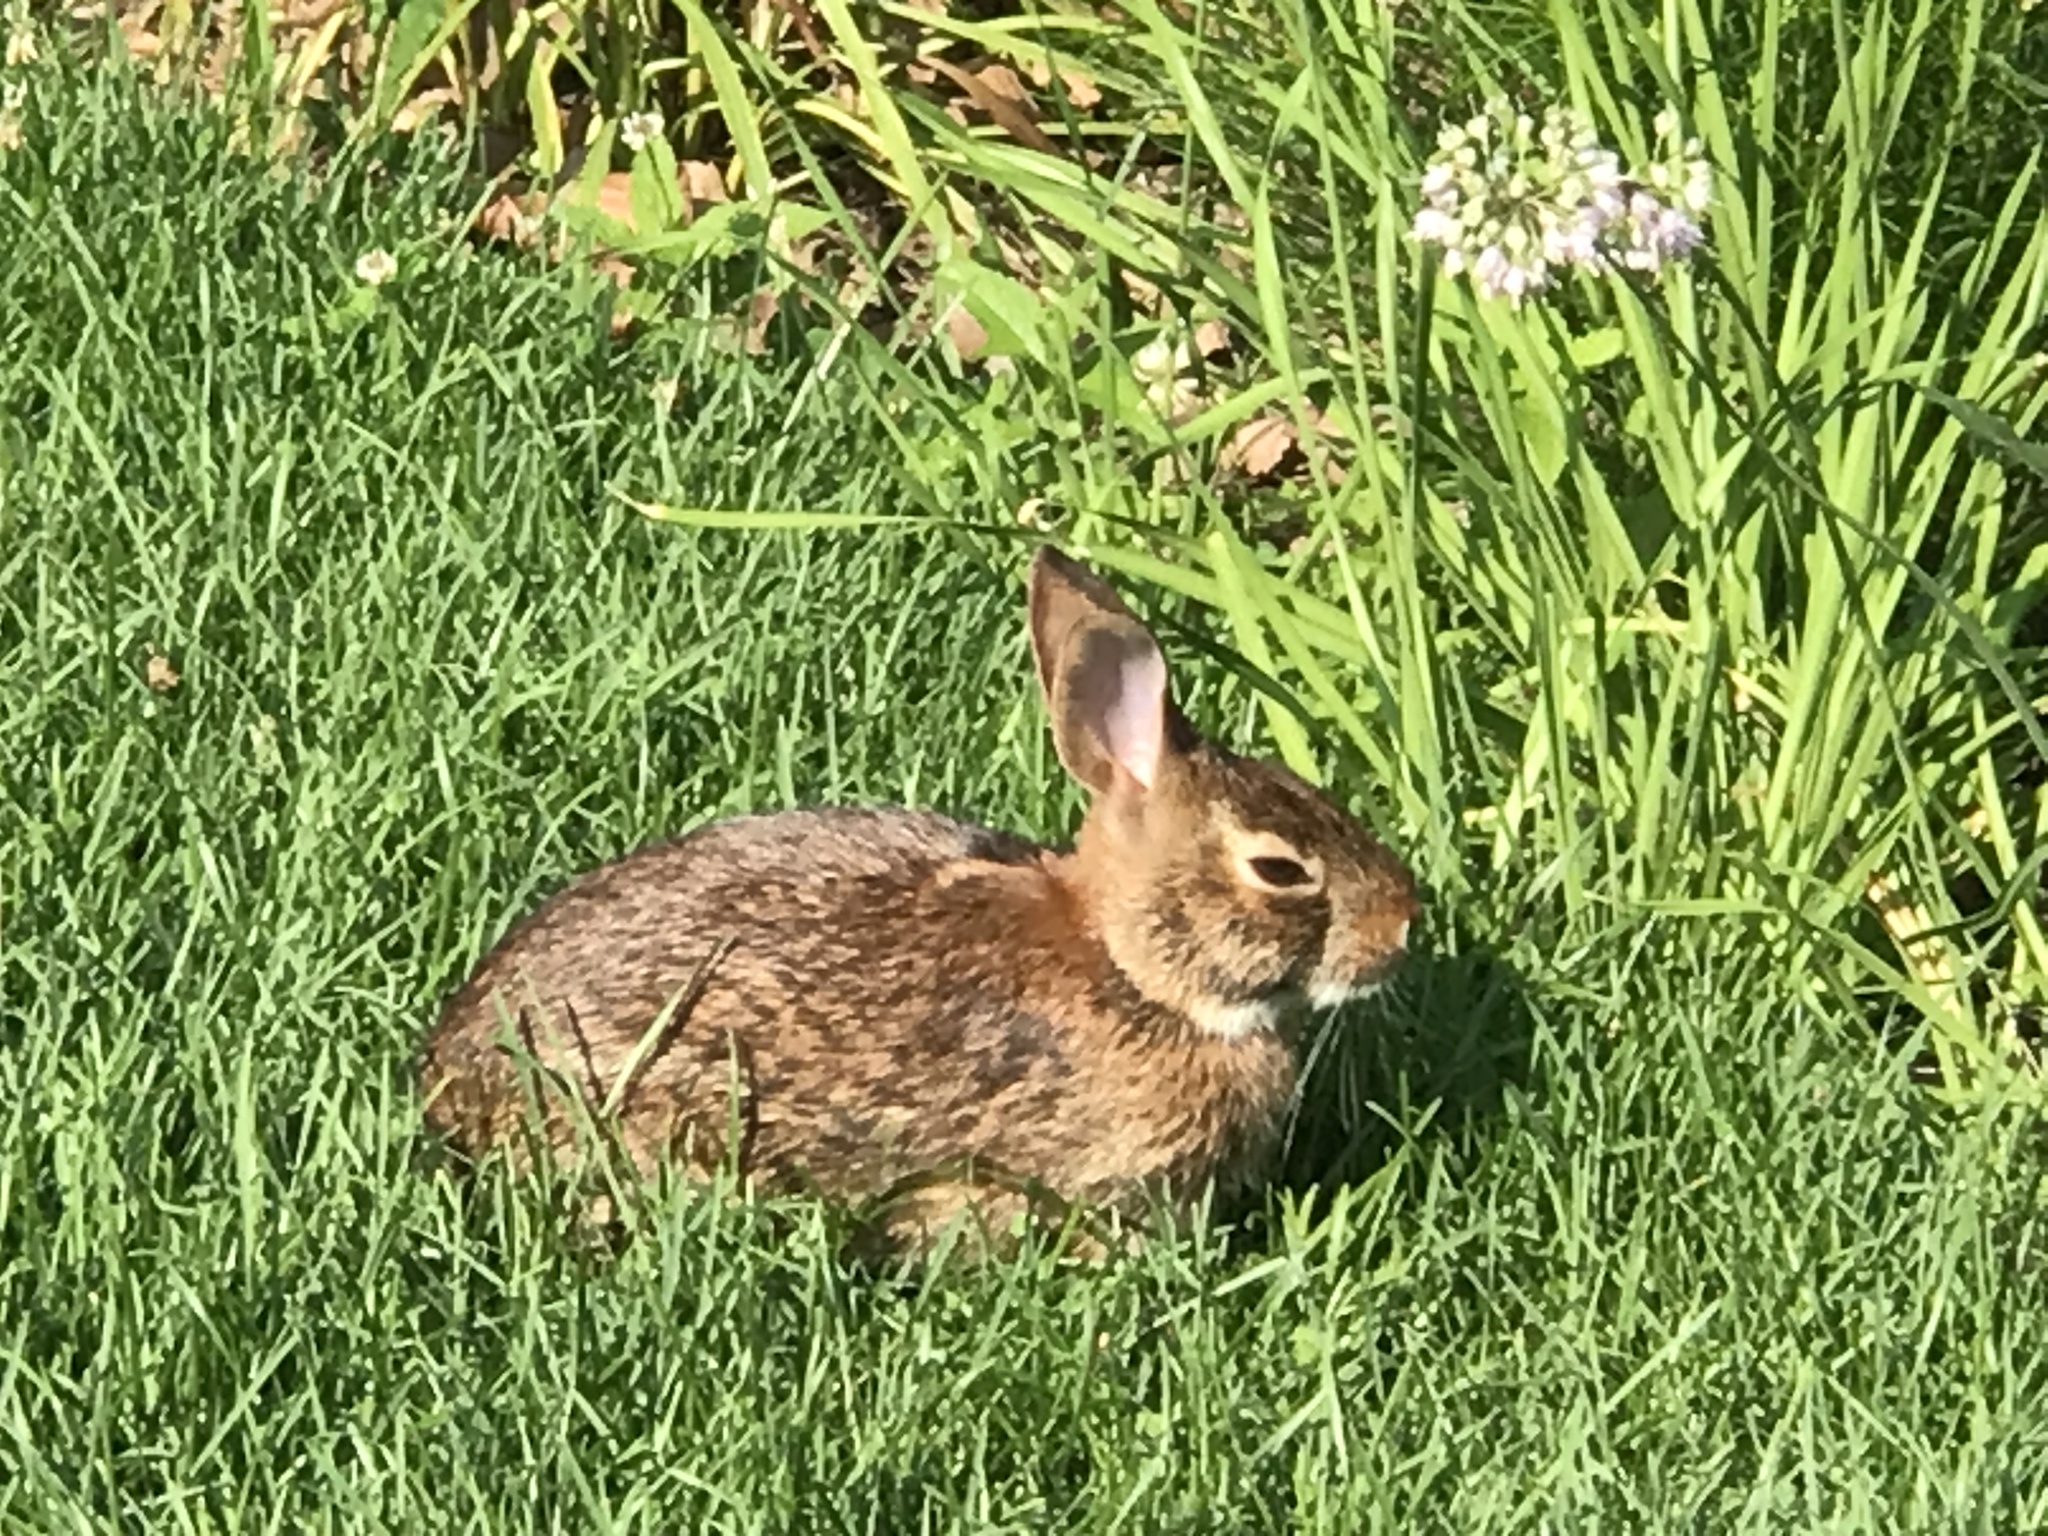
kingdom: Animalia
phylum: Chordata
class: Mammalia
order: Lagomorpha
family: Leporidae
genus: Sylvilagus
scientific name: Sylvilagus floridanus
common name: Eastern cottontail
